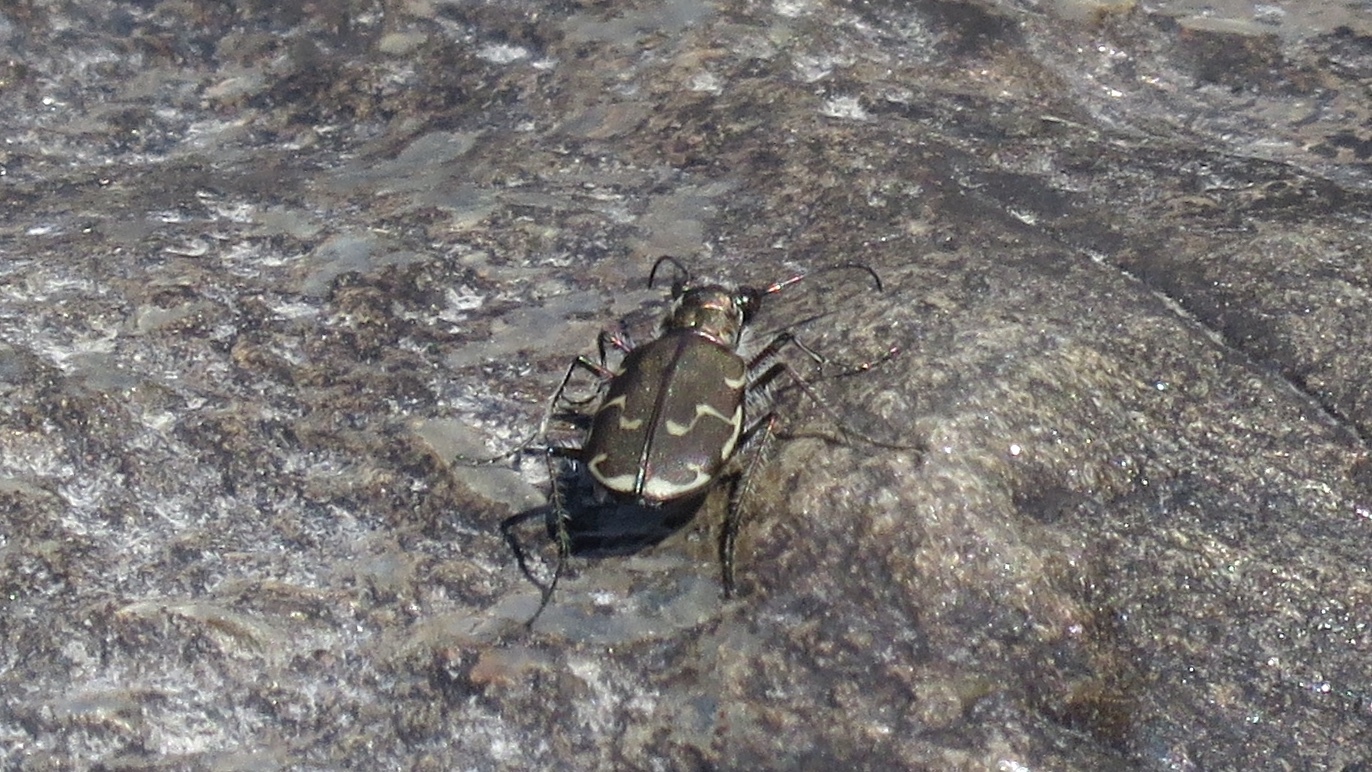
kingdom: Animalia
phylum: Arthropoda
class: Insecta
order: Coleoptera
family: Carabidae
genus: Cicindela
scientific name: Cicindela repanda
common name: Bronzed tiger beetle
